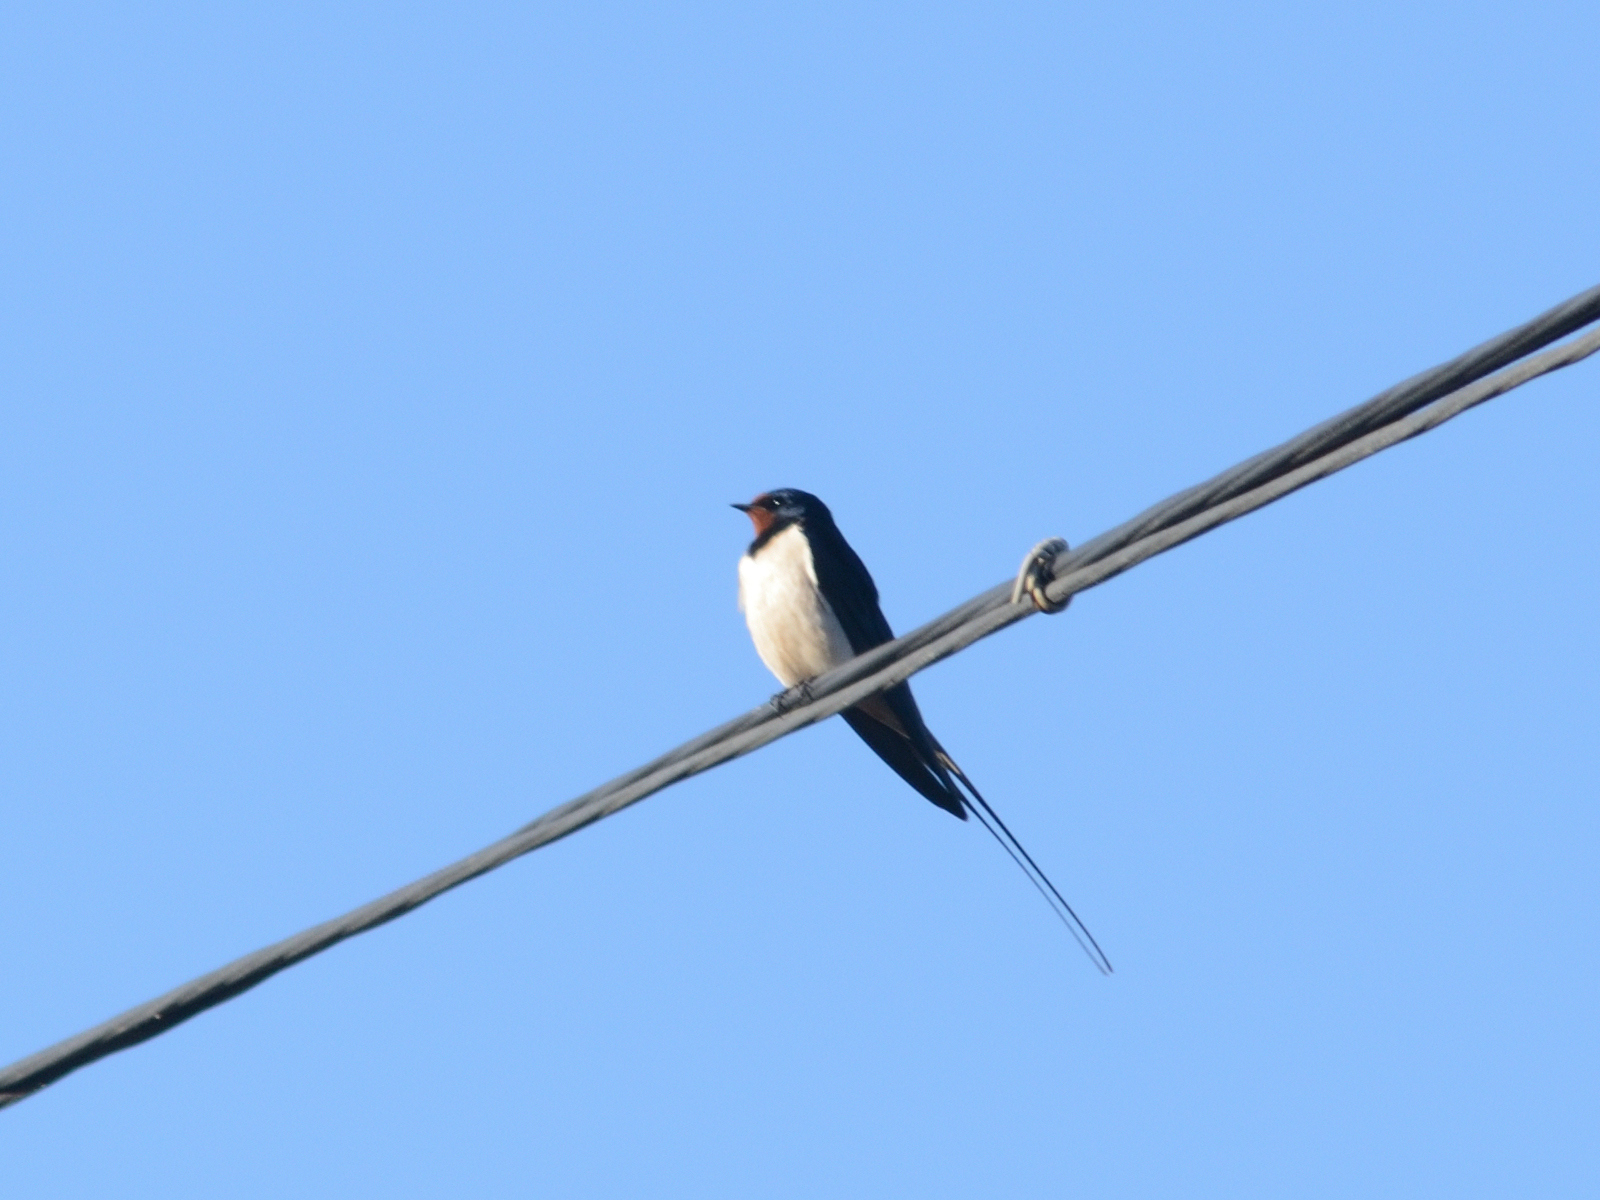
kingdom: Animalia
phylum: Chordata
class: Aves
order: Passeriformes
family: Hirundinidae
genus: Hirundo
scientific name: Hirundo rustica
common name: Barn swallow
